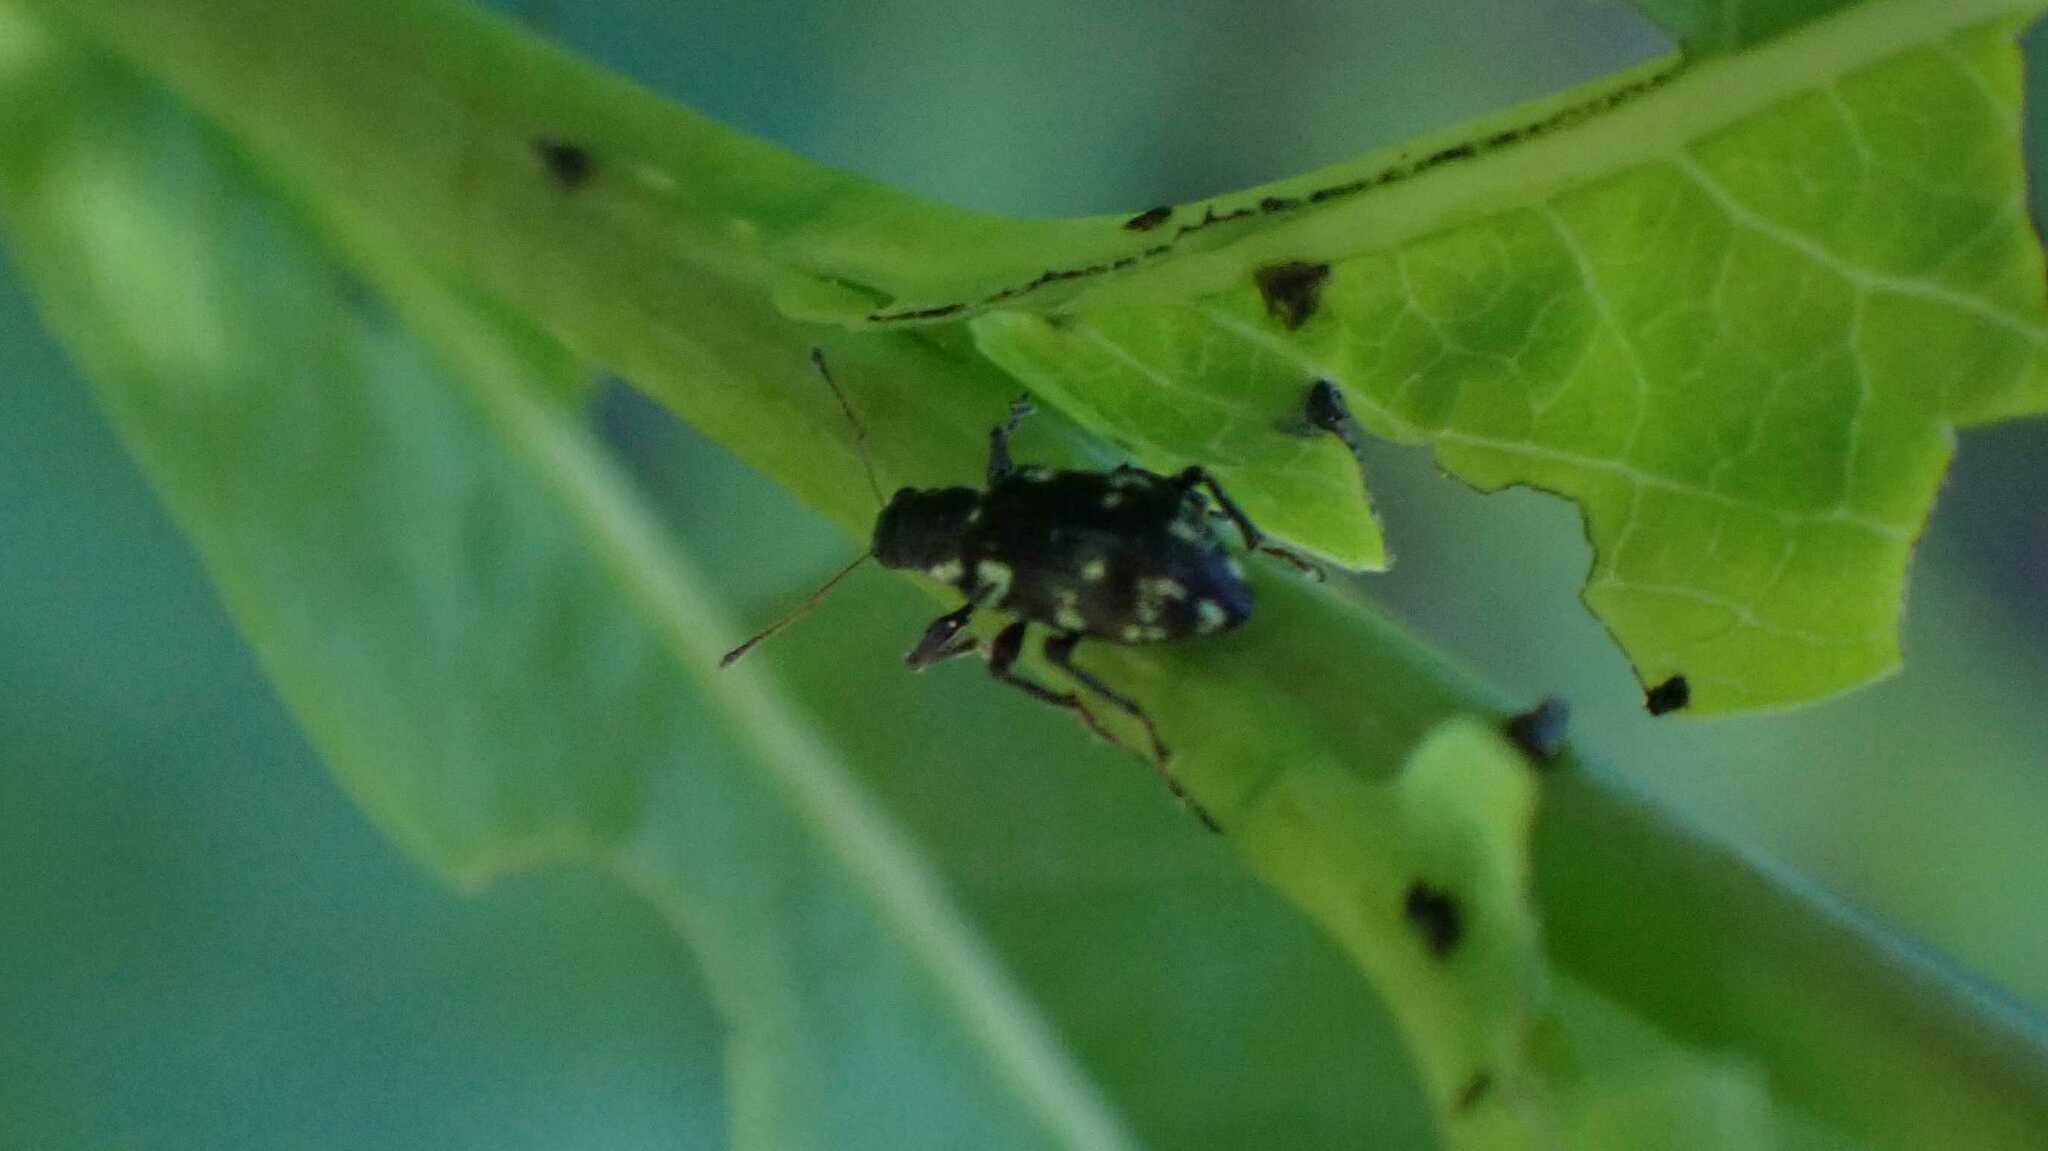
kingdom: Animalia
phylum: Arthropoda
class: Insecta
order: Coleoptera
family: Curculionidae
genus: Polydrusus
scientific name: Polydrusus picus
